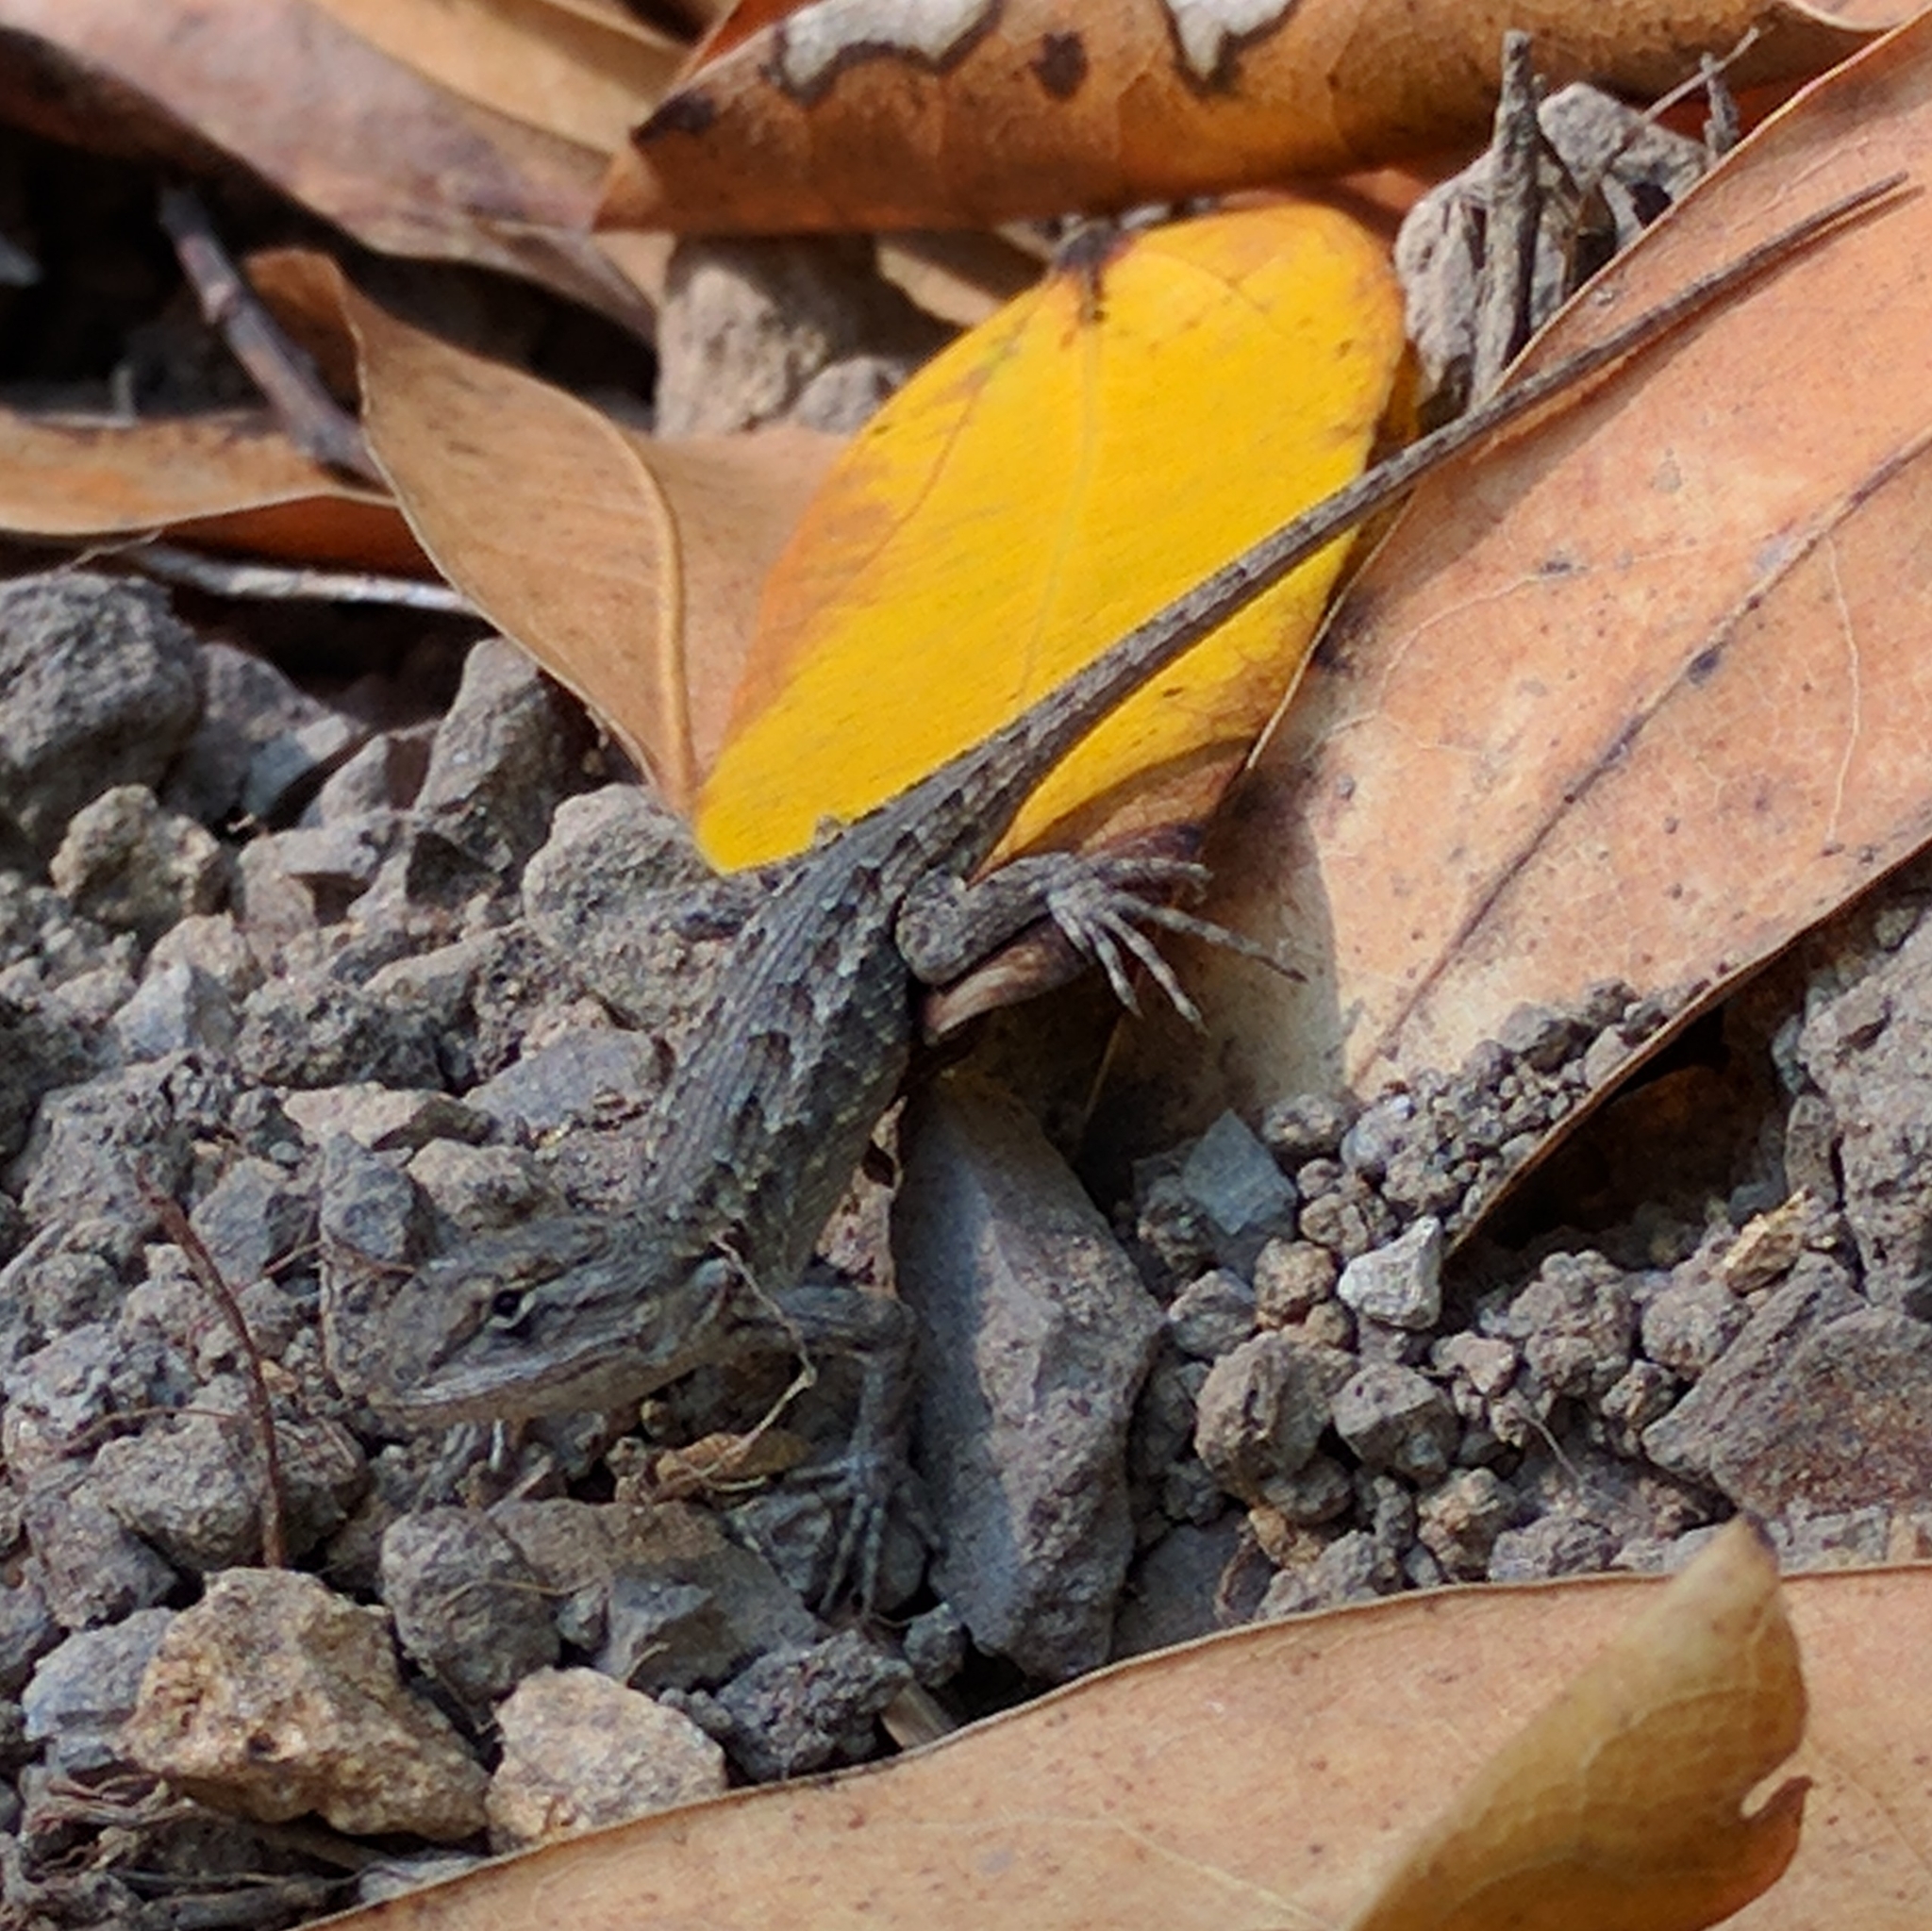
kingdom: Animalia
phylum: Chordata
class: Squamata
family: Phrynosomatidae
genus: Sceloporus
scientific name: Sceloporus occidentalis
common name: Western fence lizard
